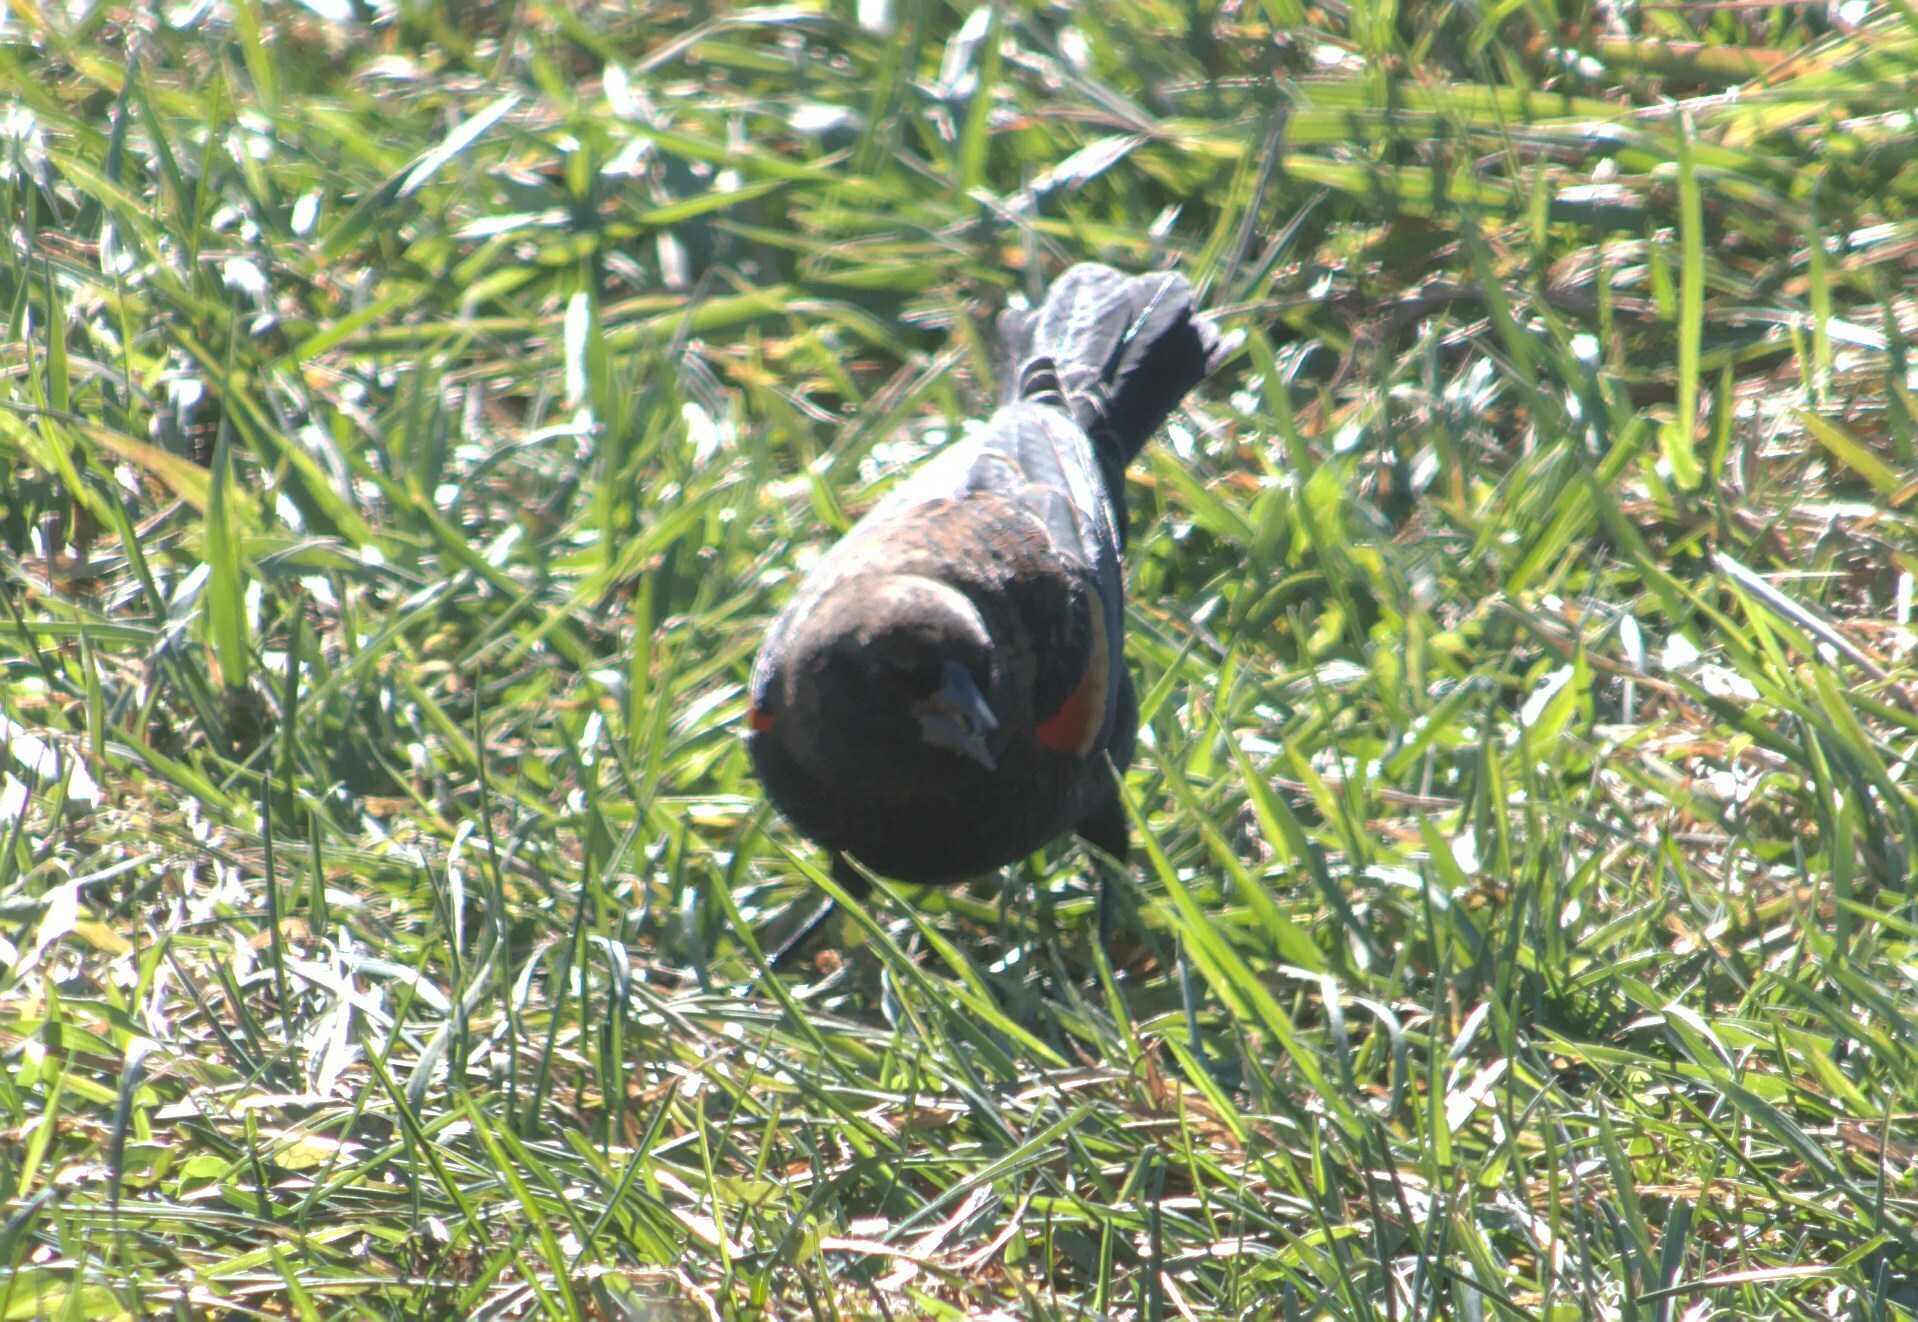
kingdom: Animalia
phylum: Chordata
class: Aves
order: Passeriformes
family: Icteridae
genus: Agelaius
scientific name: Agelaius phoeniceus
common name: Red-winged blackbird
